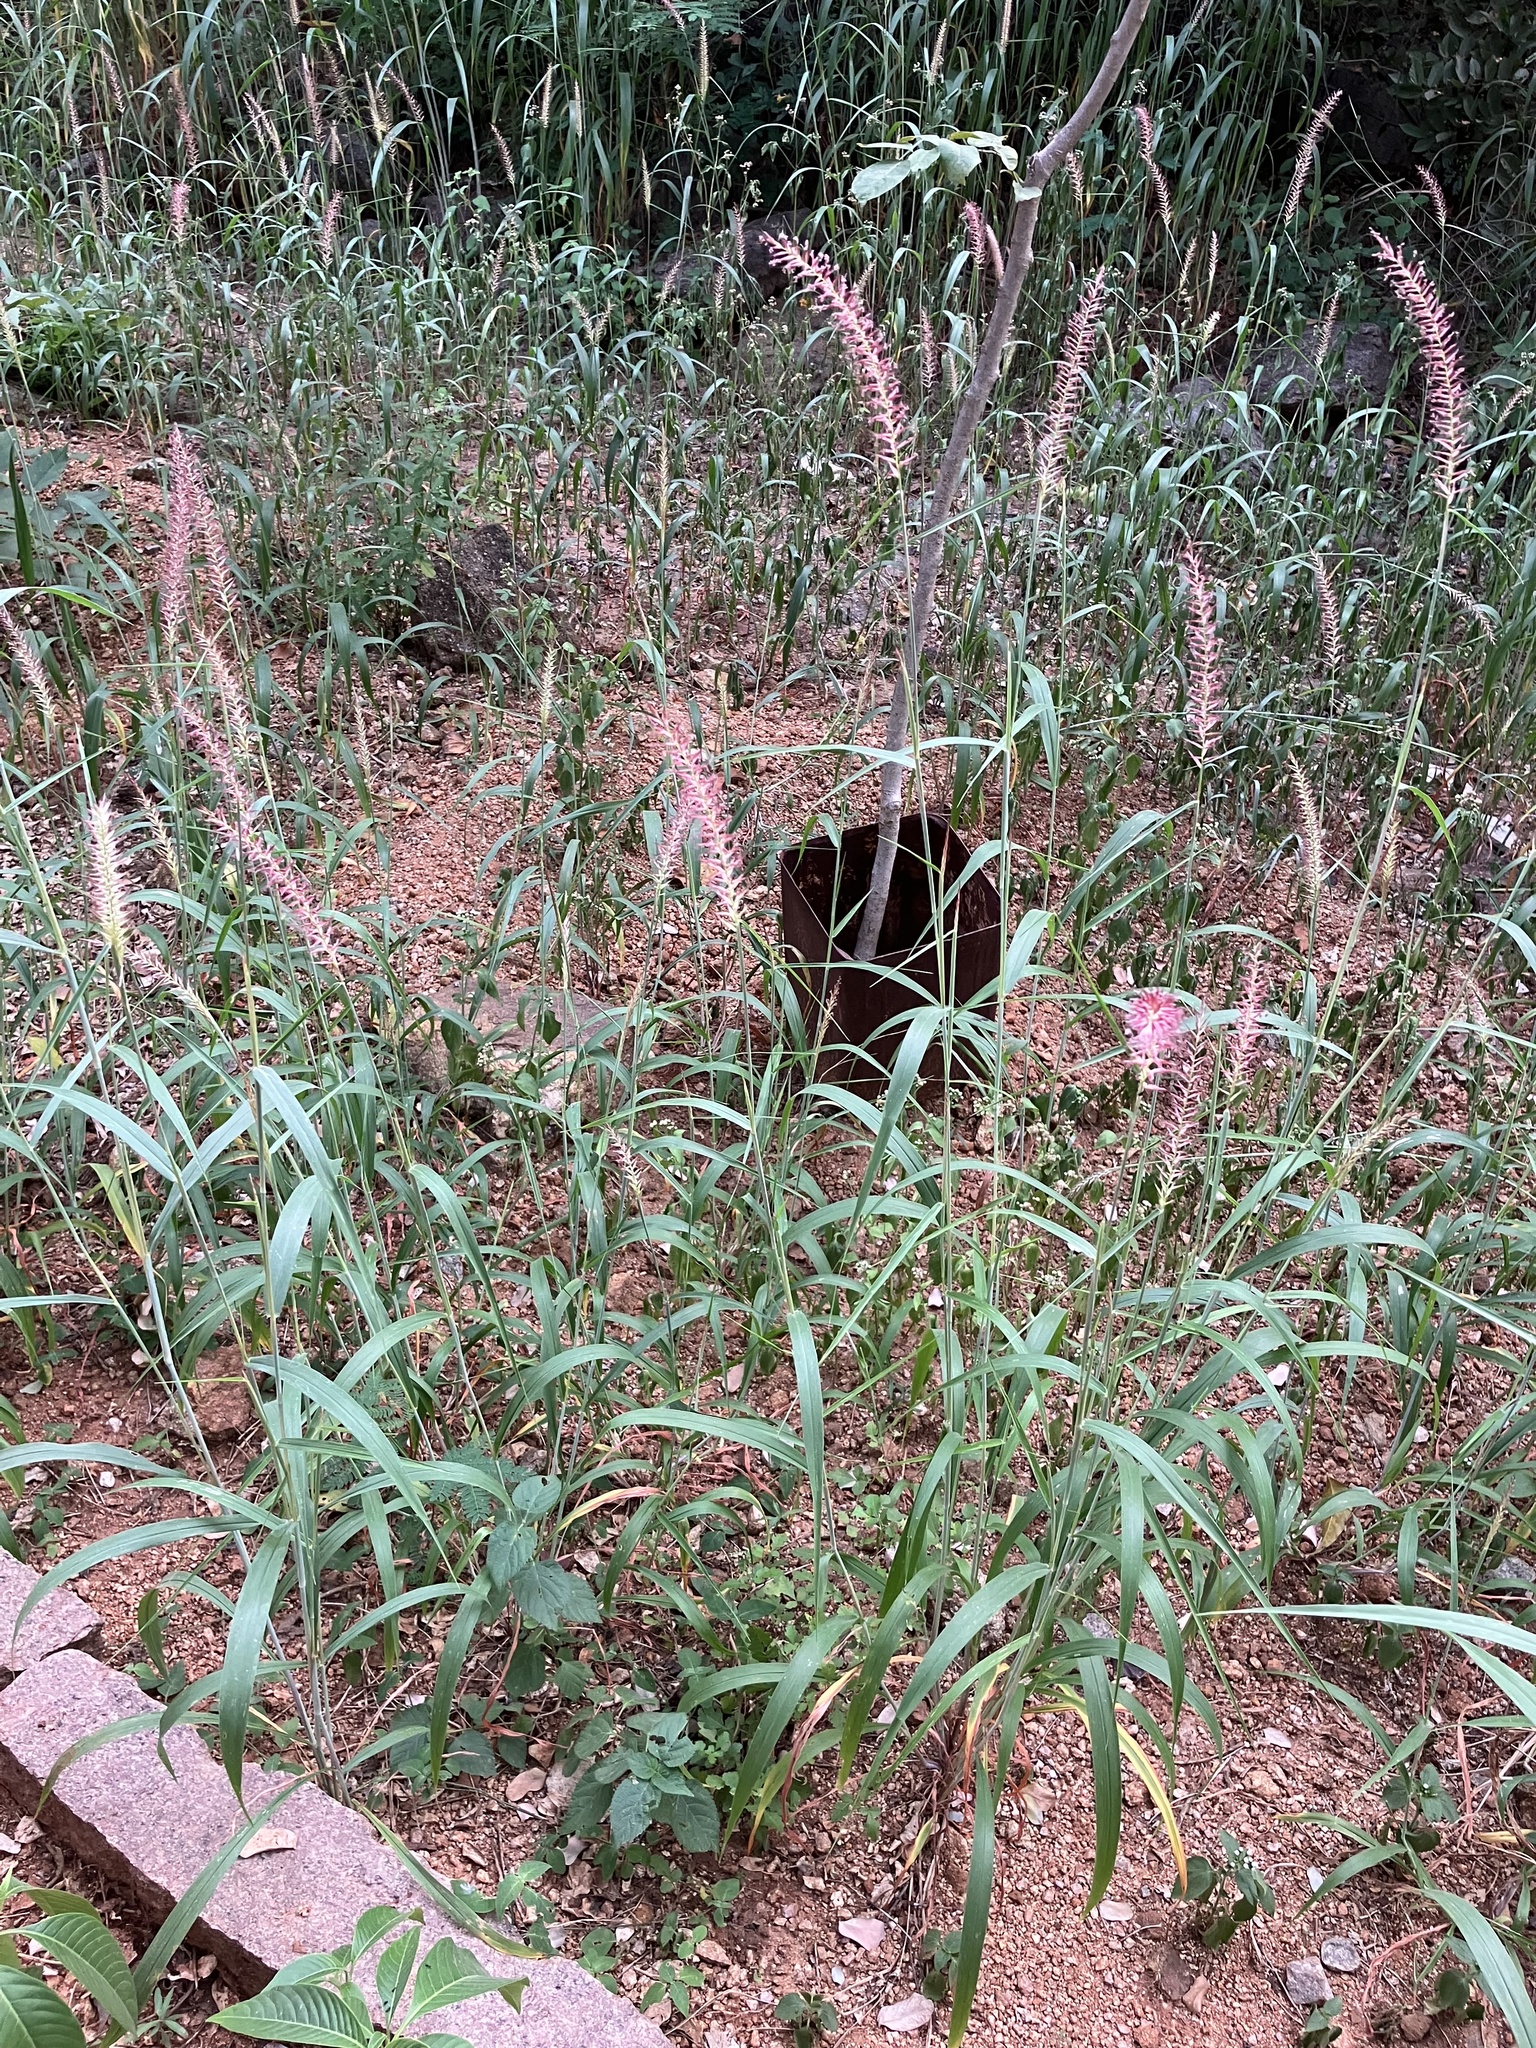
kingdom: Plantae
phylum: Tracheophyta
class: Liliopsida
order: Poales
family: Poaceae
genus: Cenchrus
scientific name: Cenchrus pedicellatus
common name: Hairy fountain grass
